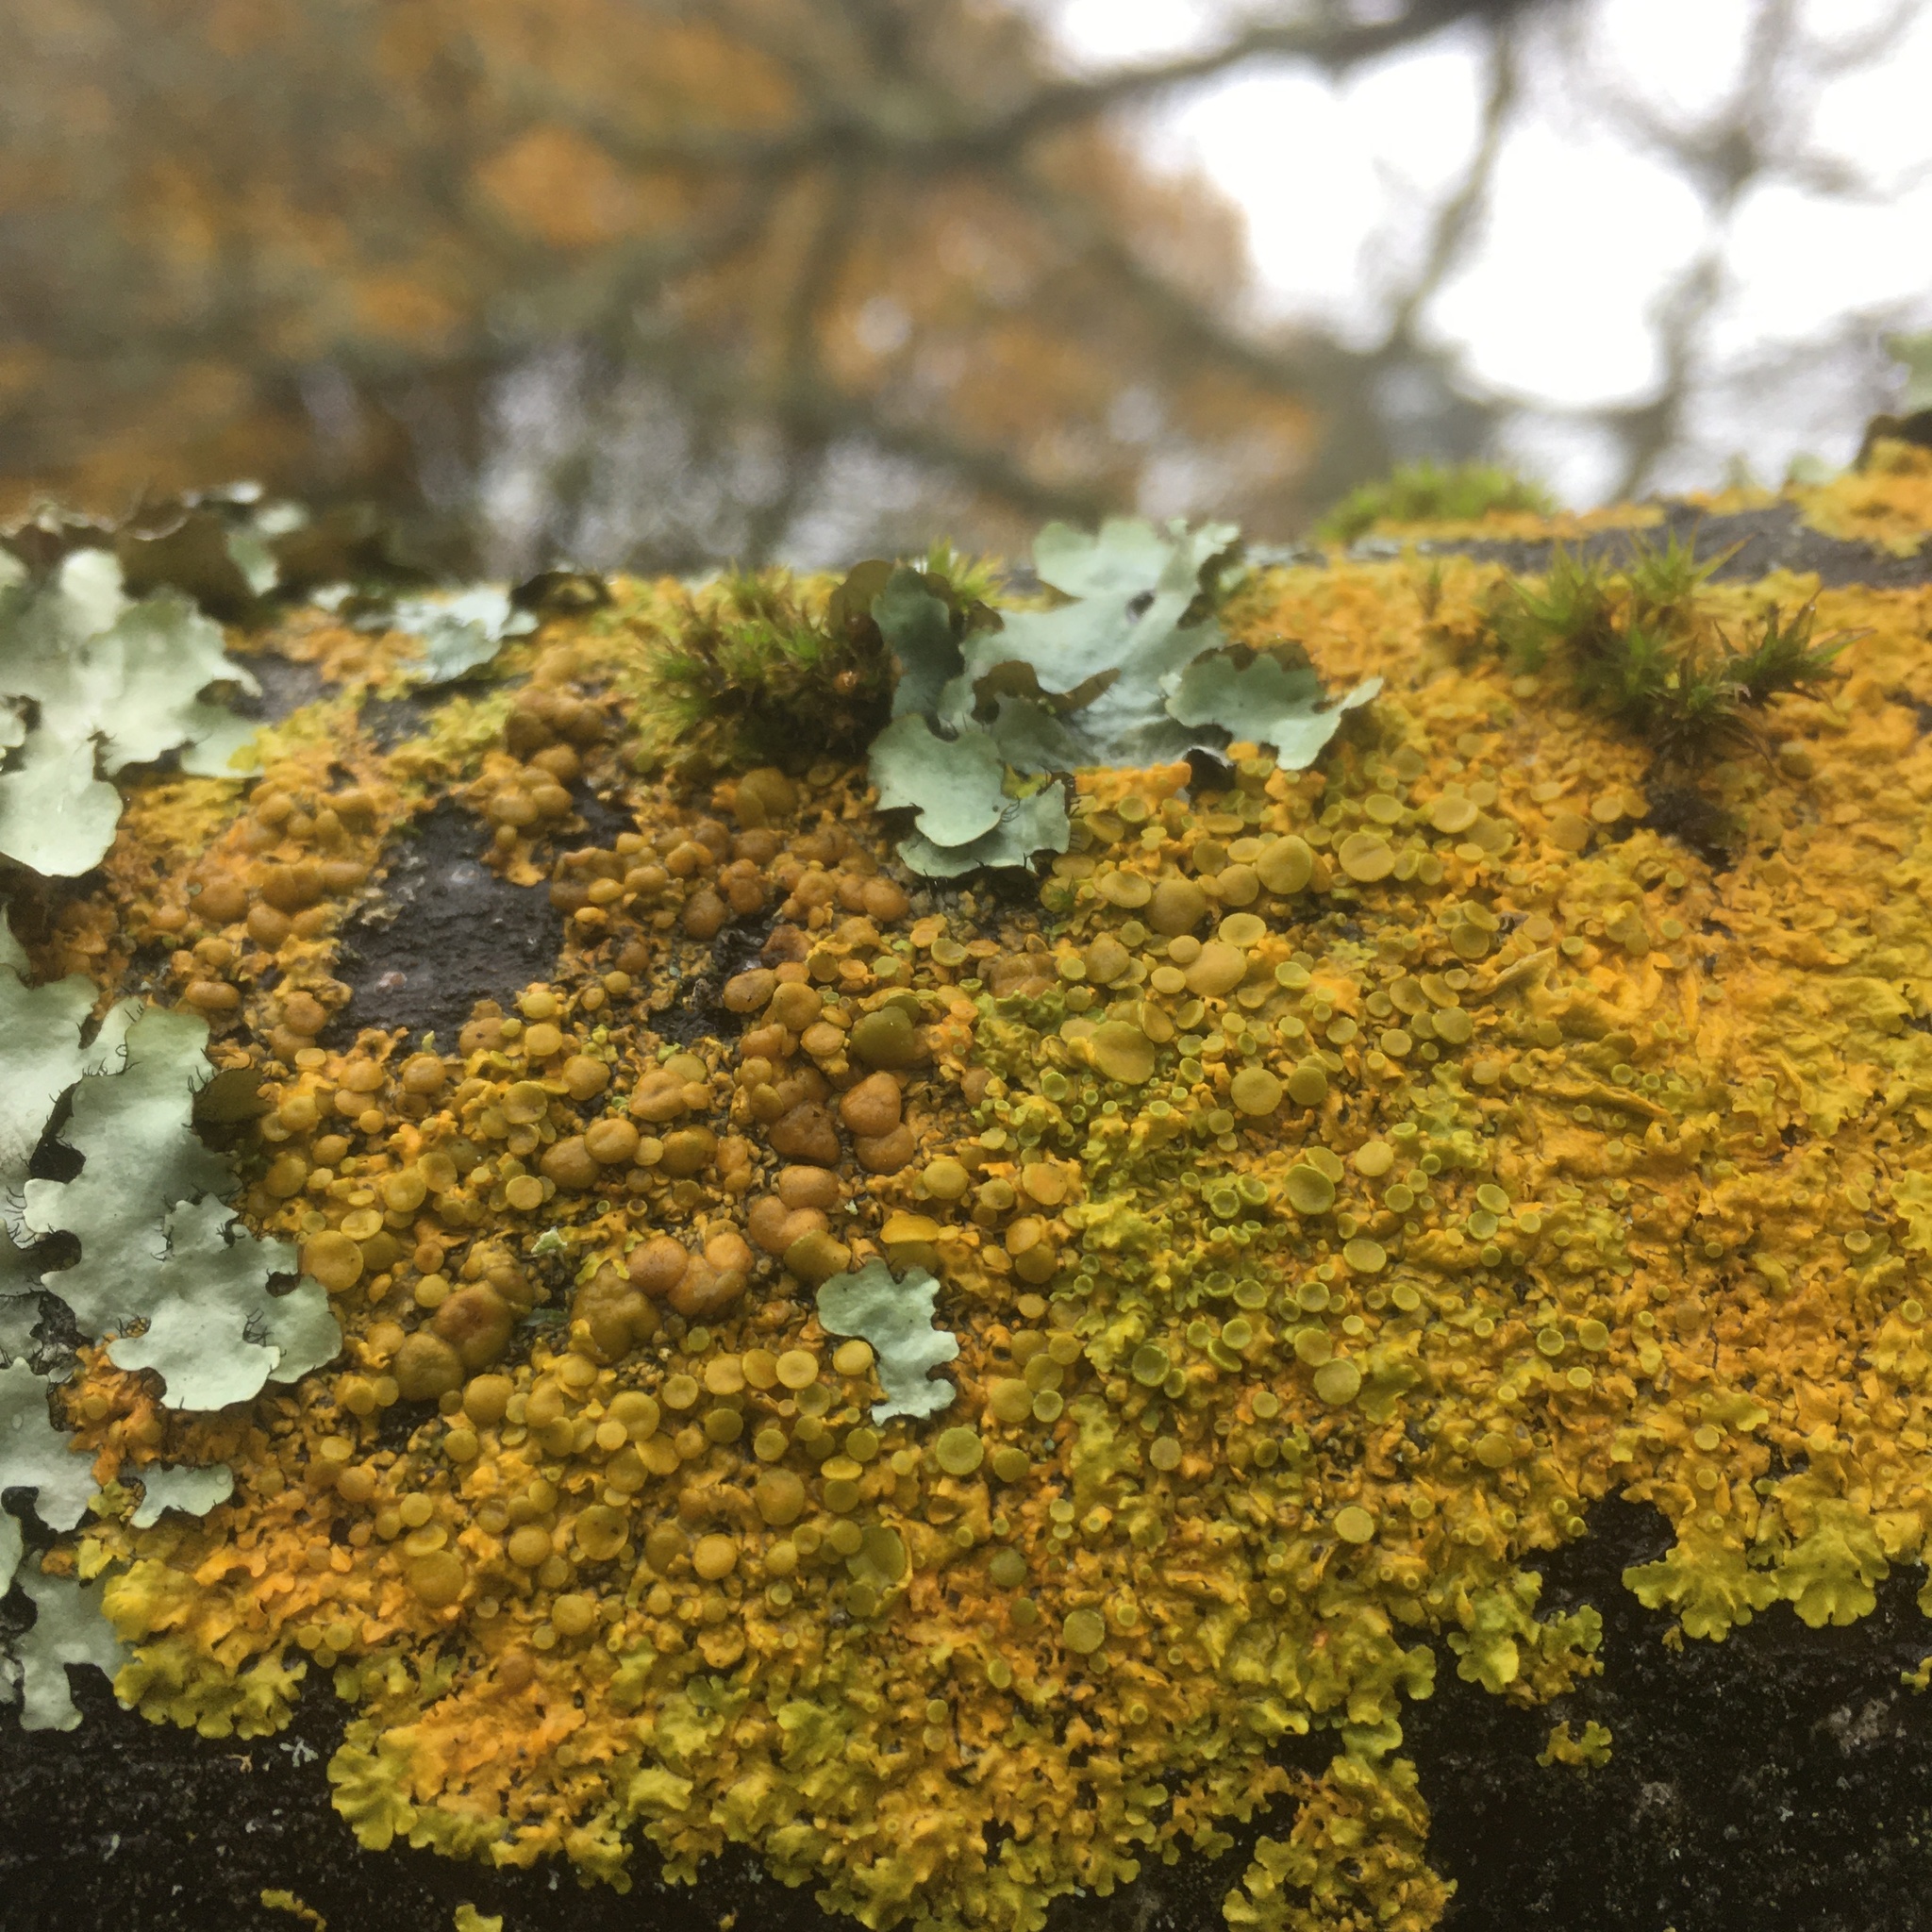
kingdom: Fungi
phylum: Ascomycota
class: Lecanoromycetes
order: Teloschistales
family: Teloschistaceae
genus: Xanthoria
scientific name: Xanthoria parietina
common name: Common orange lichen
